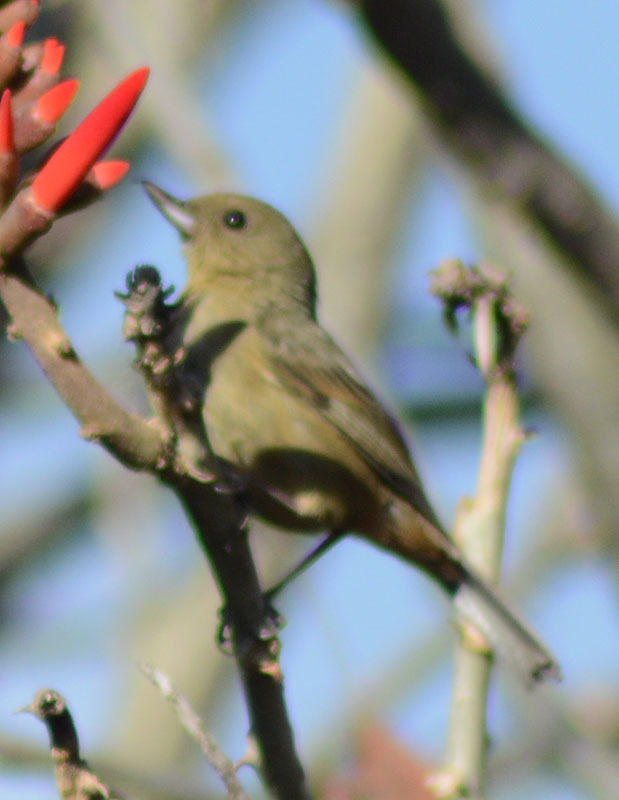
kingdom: Animalia
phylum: Chordata
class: Aves
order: Passeriformes
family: Thraupidae
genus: Diglossa
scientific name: Diglossa baritula
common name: Cinnamon-bellied flowerpiercer
